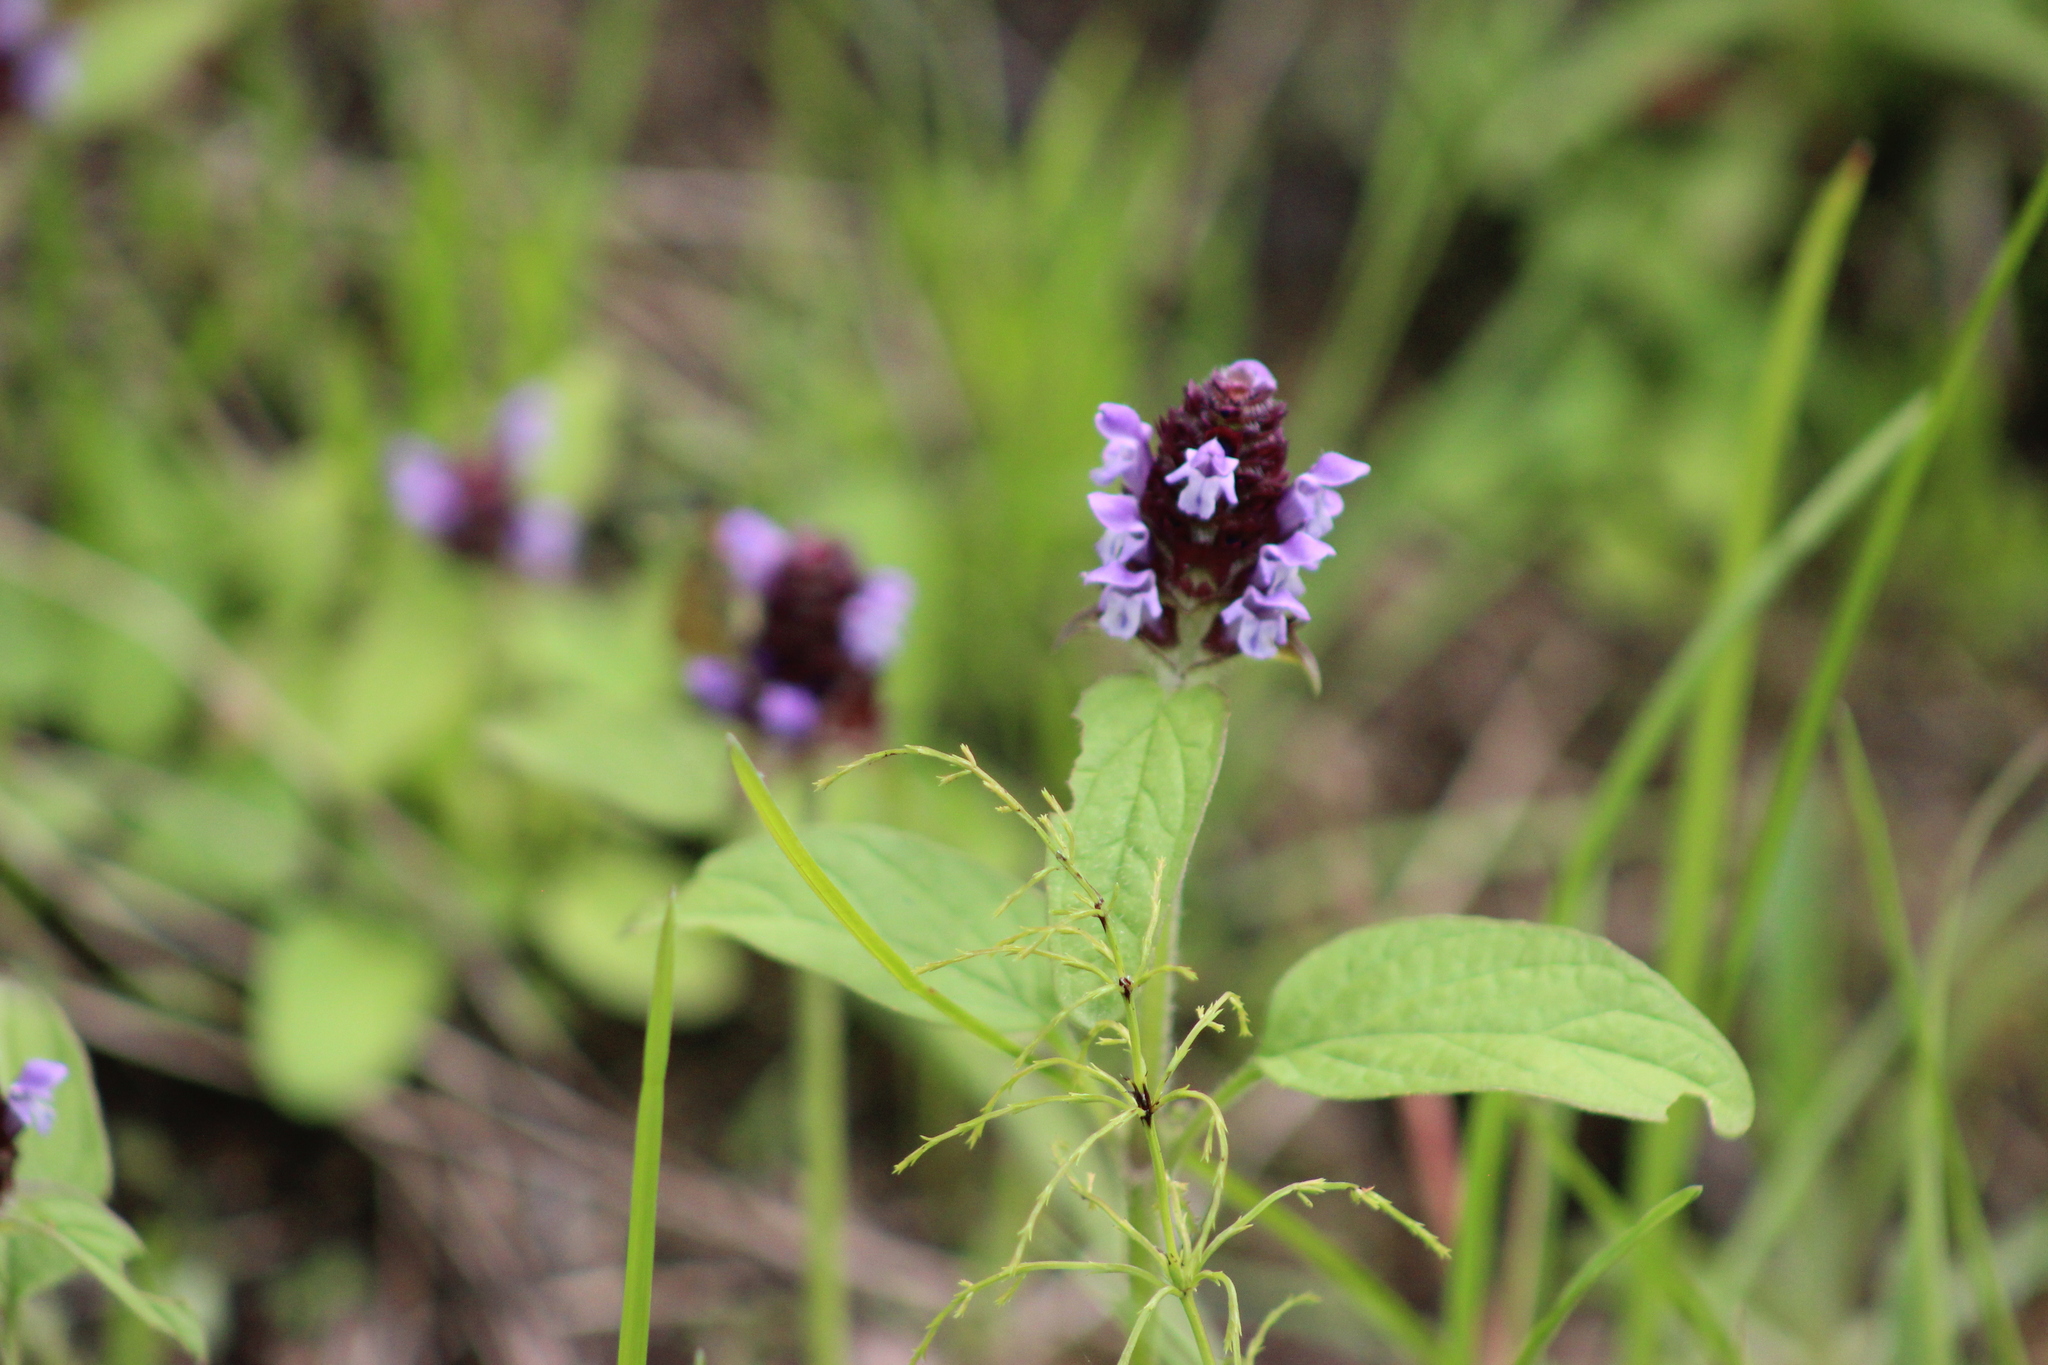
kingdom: Plantae
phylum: Tracheophyta
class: Magnoliopsida
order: Lamiales
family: Lamiaceae
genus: Prunella
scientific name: Prunella vulgaris
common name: Heal-all
